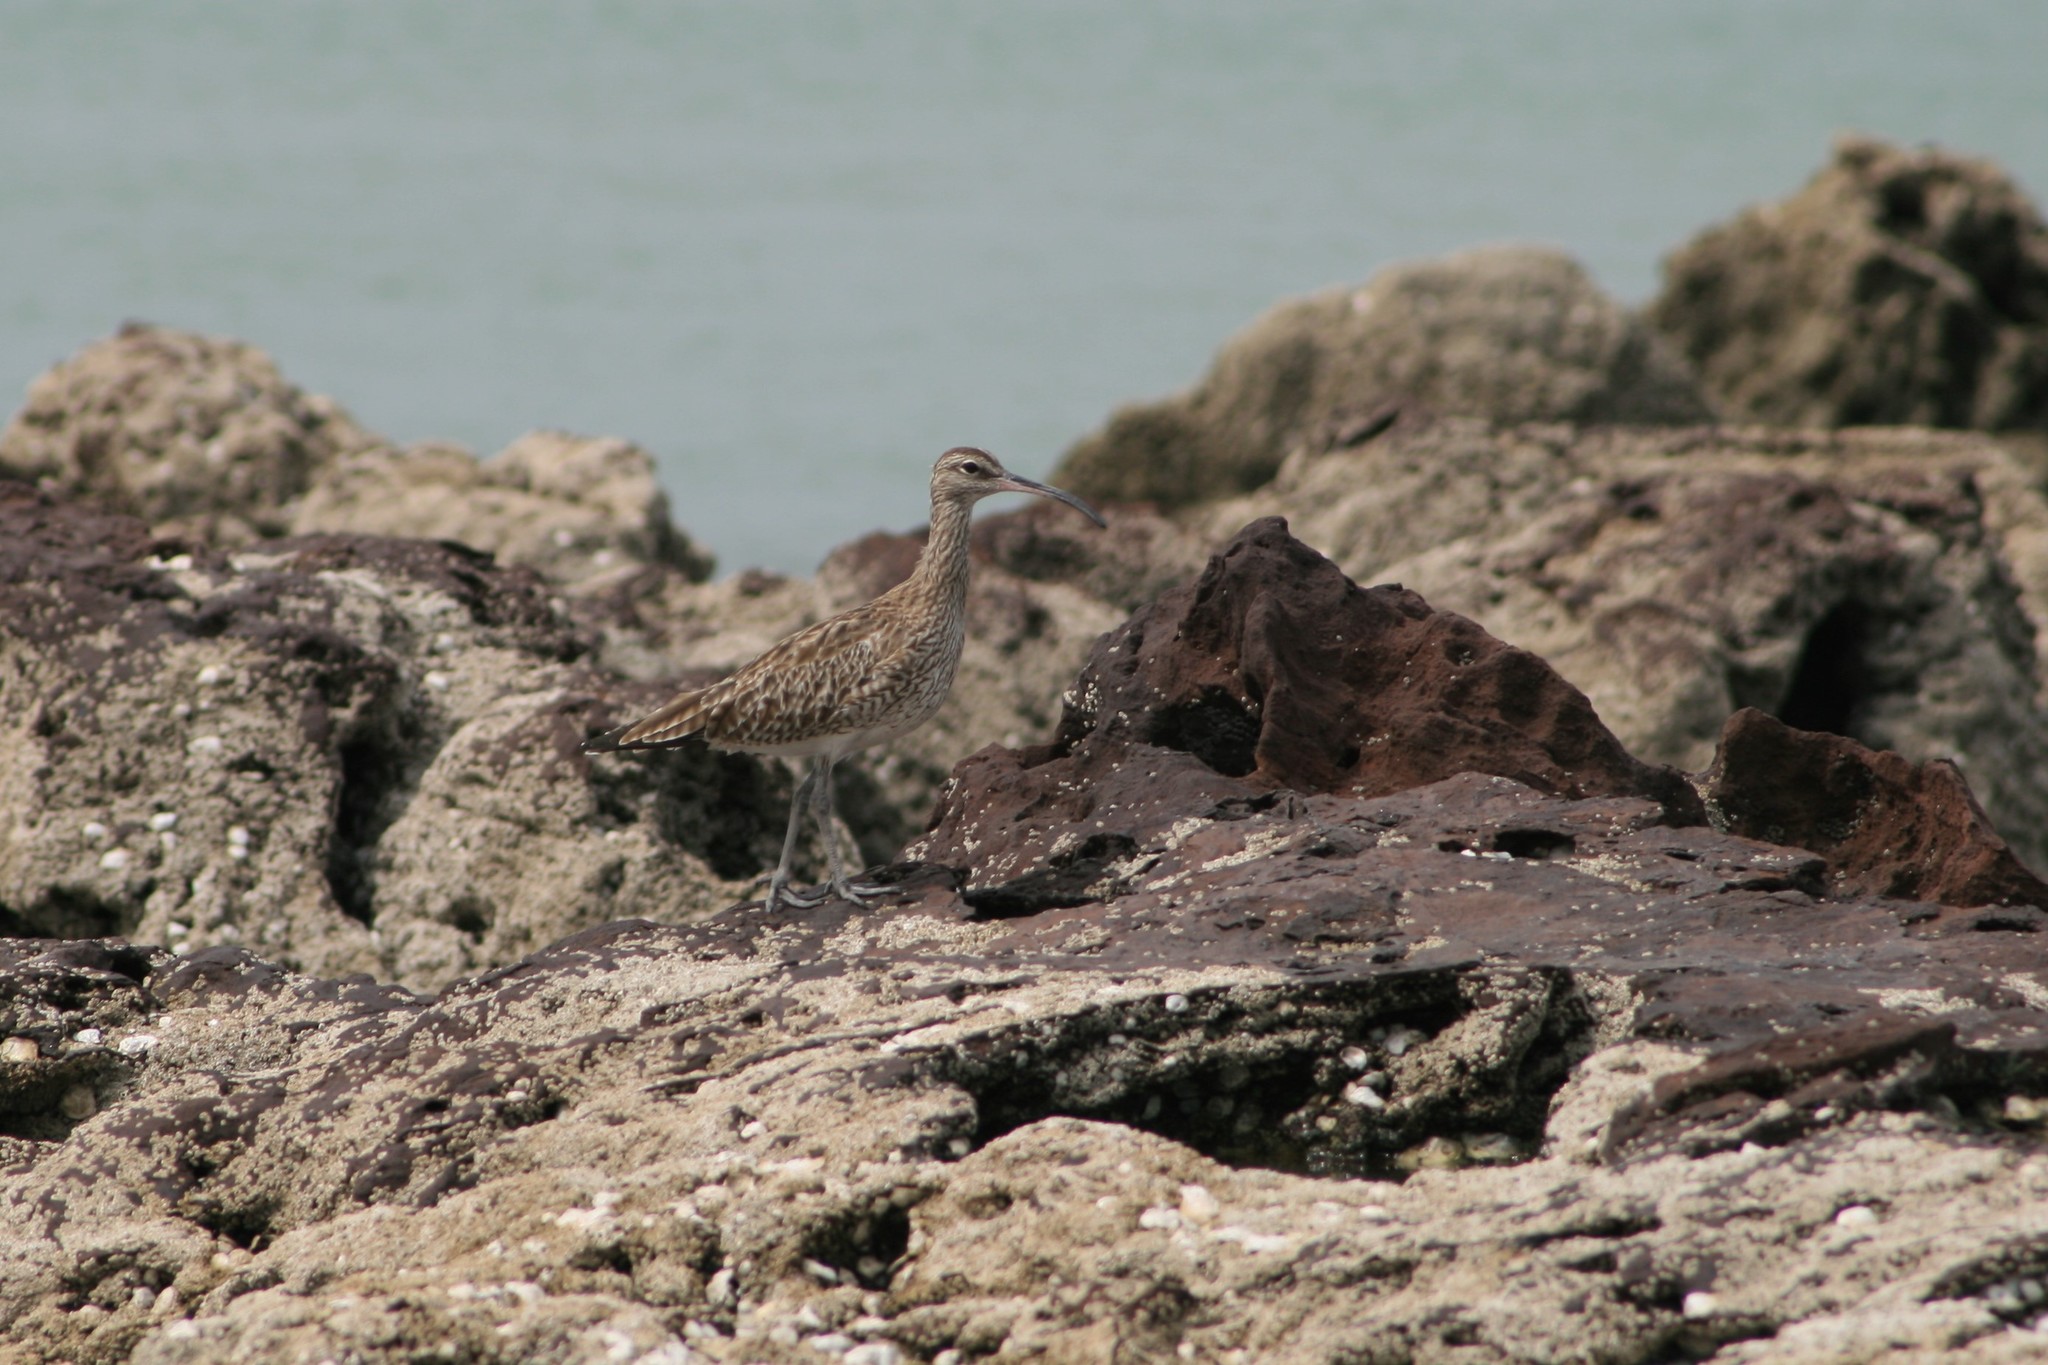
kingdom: Animalia
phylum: Chordata
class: Aves
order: Charadriiformes
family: Scolopacidae
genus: Numenius
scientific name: Numenius phaeopus
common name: Whimbrel
